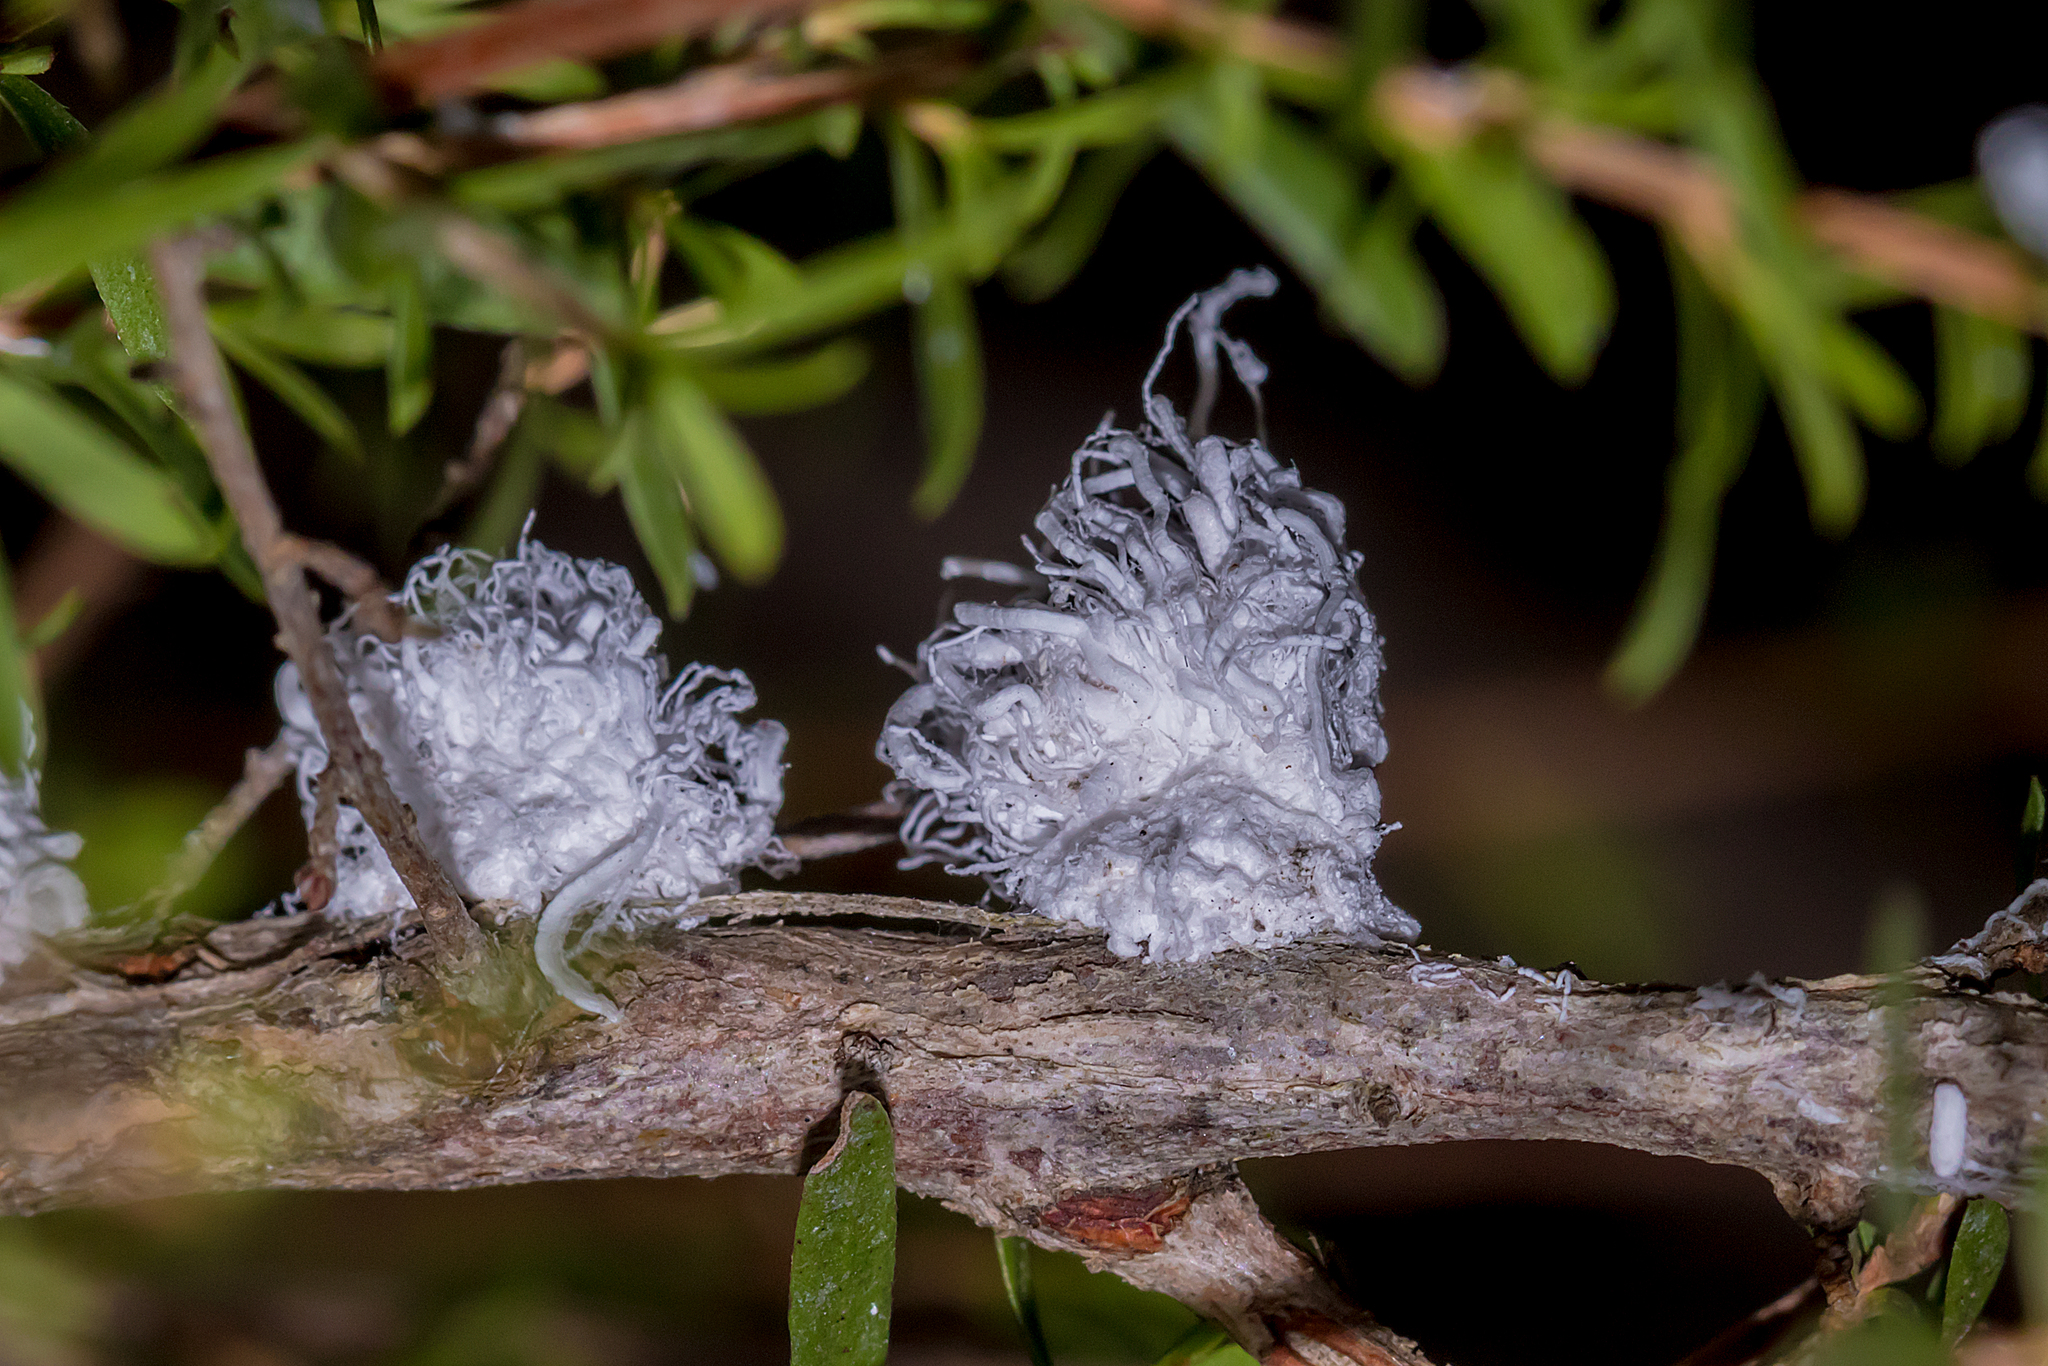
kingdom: Animalia
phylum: Arthropoda
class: Insecta
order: Hemiptera
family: Asterolecaniidae
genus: Callococcus
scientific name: Callococcus
